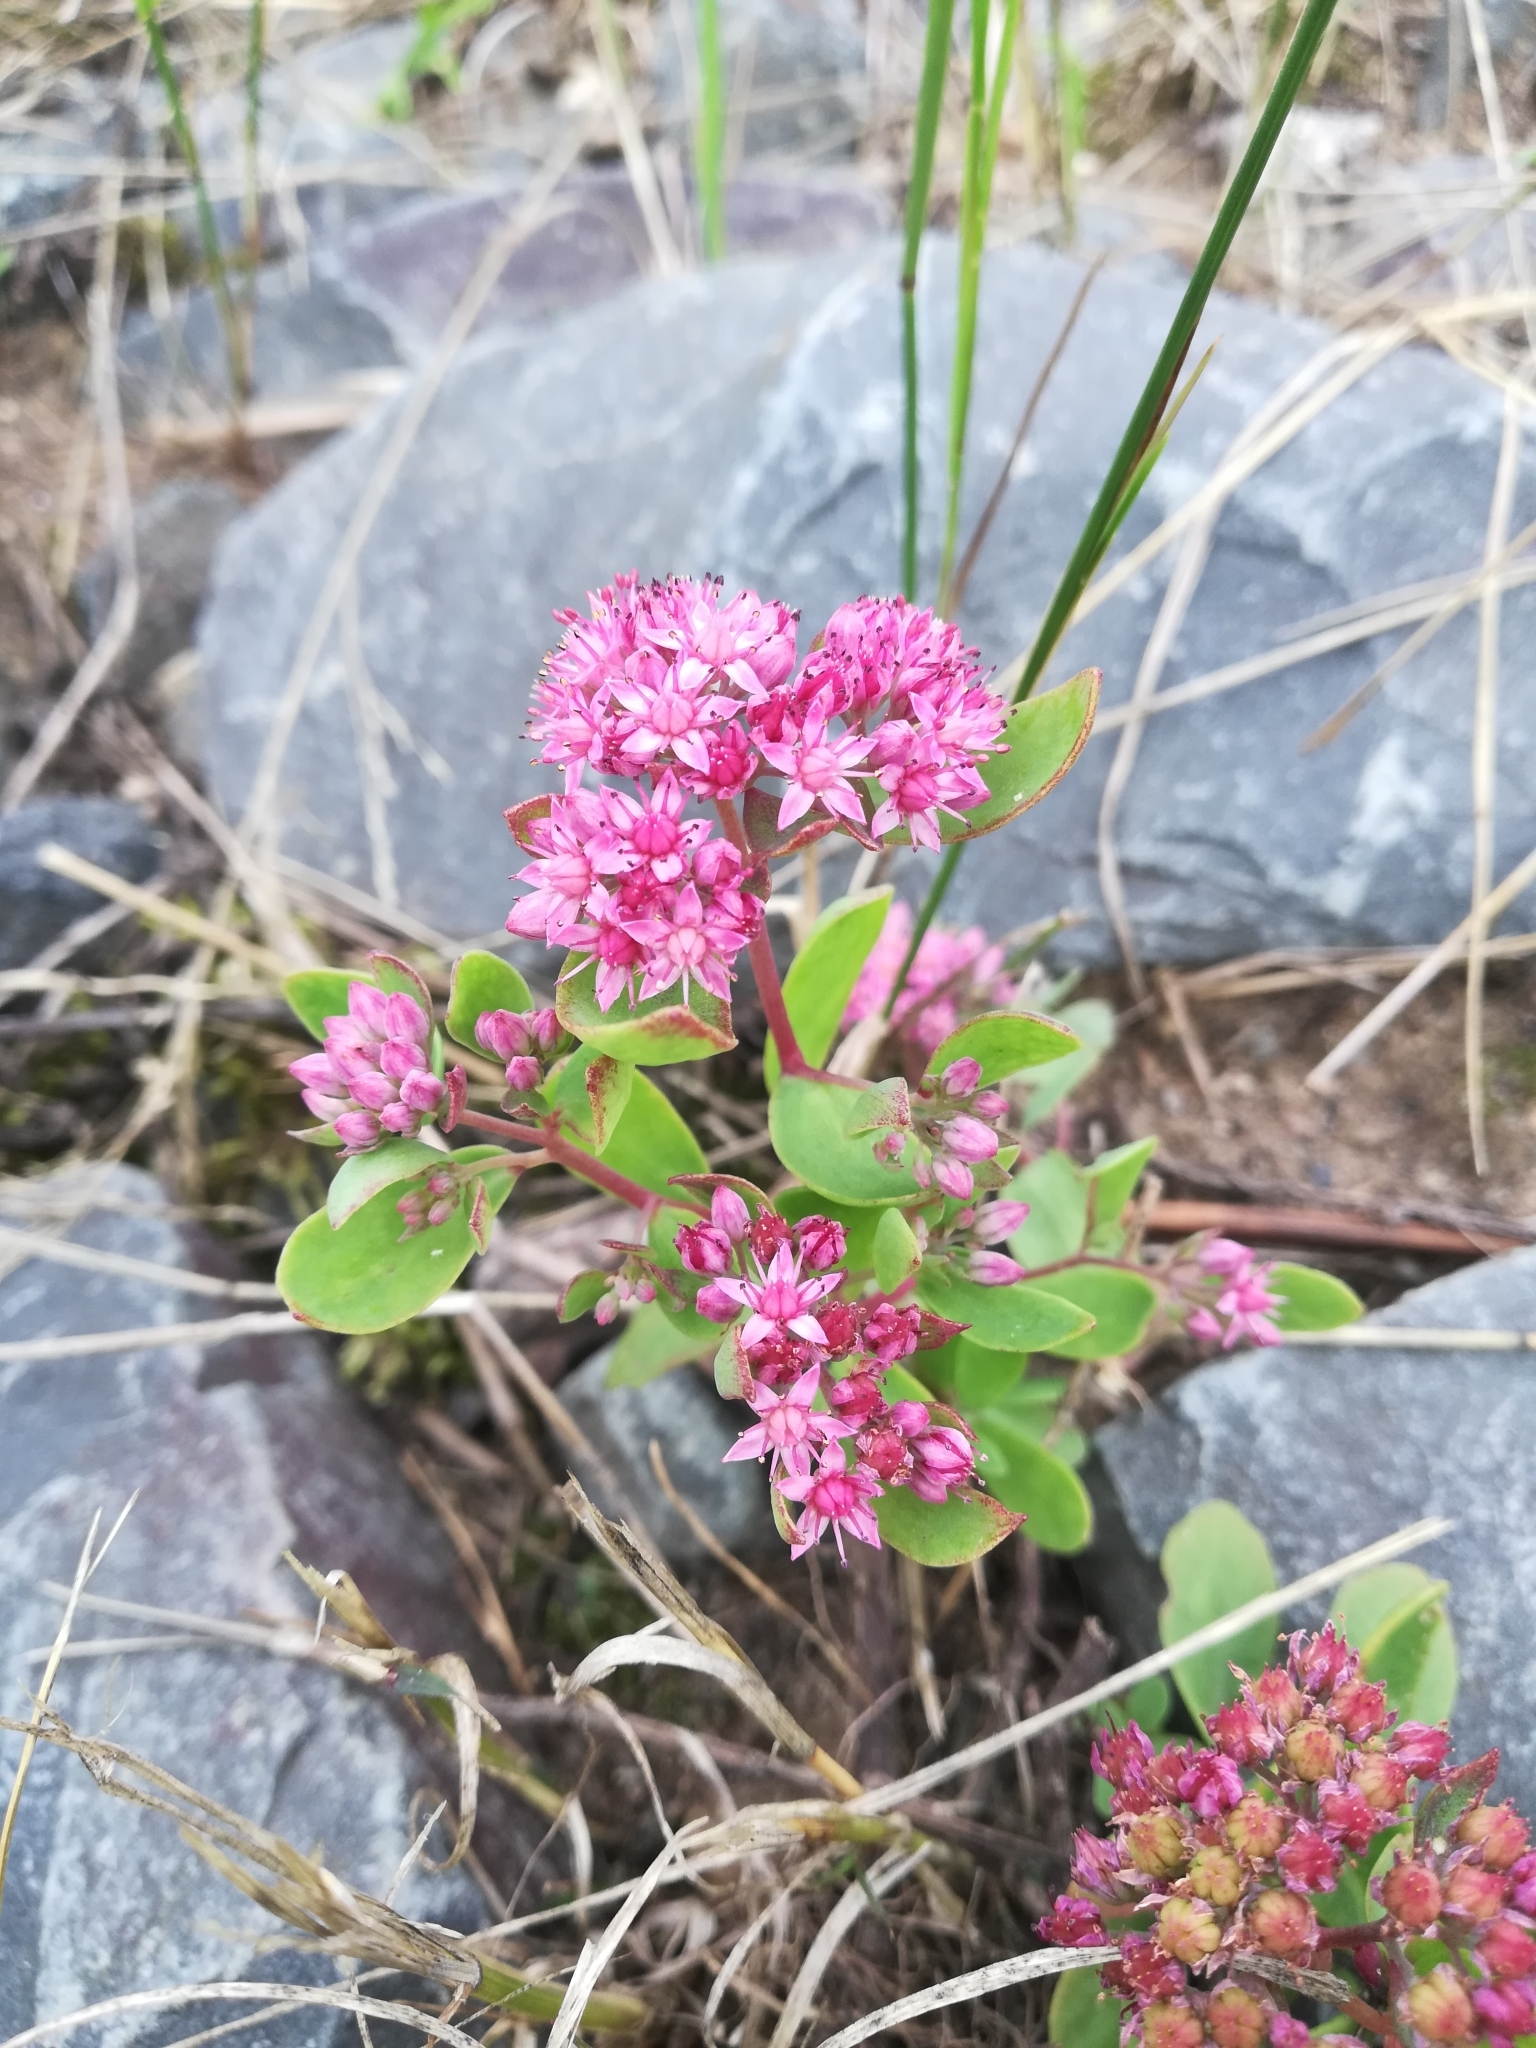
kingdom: Plantae
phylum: Tracheophyta
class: Magnoliopsida
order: Saxifragales
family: Crassulaceae
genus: Hylotelephium
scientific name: Hylotelephium telephium
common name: Live-forever
